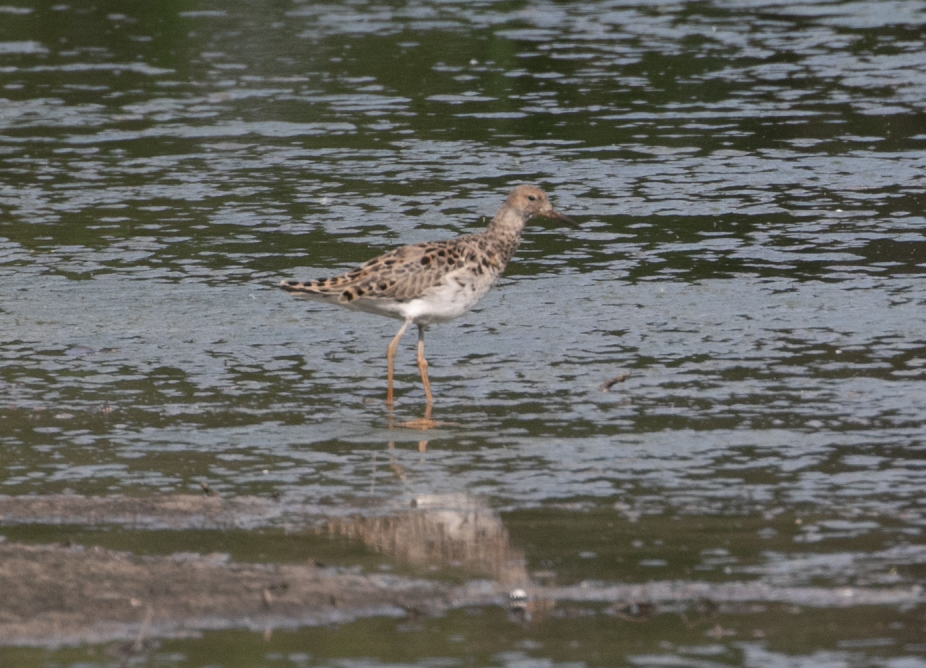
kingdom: Animalia
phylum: Chordata
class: Aves
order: Charadriiformes
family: Scolopacidae
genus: Calidris
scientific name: Calidris pugnax
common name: Ruff
